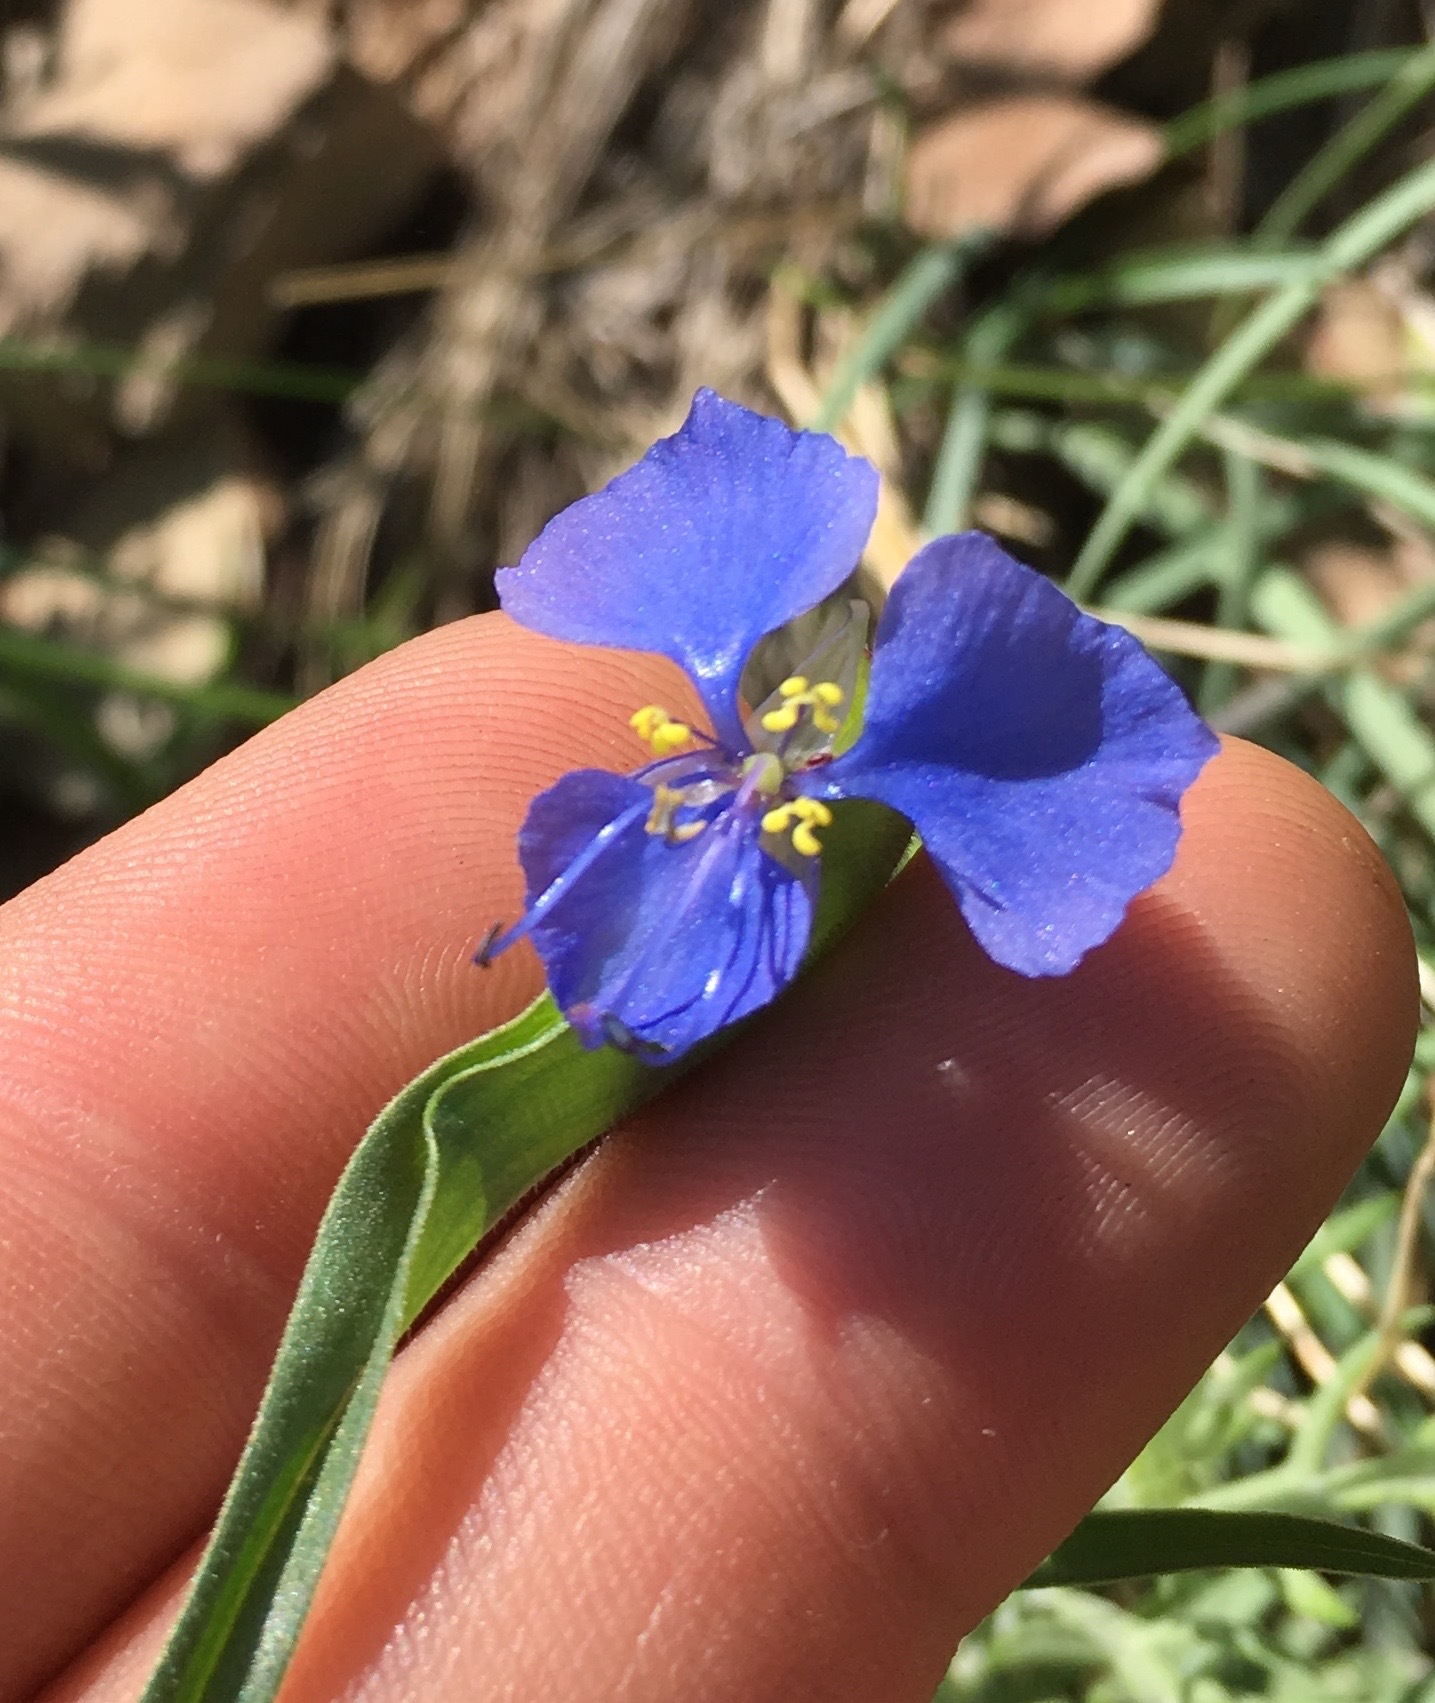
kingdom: Plantae
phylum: Tracheophyta
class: Liliopsida
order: Commelinales
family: Commelinaceae
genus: Commelina
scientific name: Commelina dianthifolia
